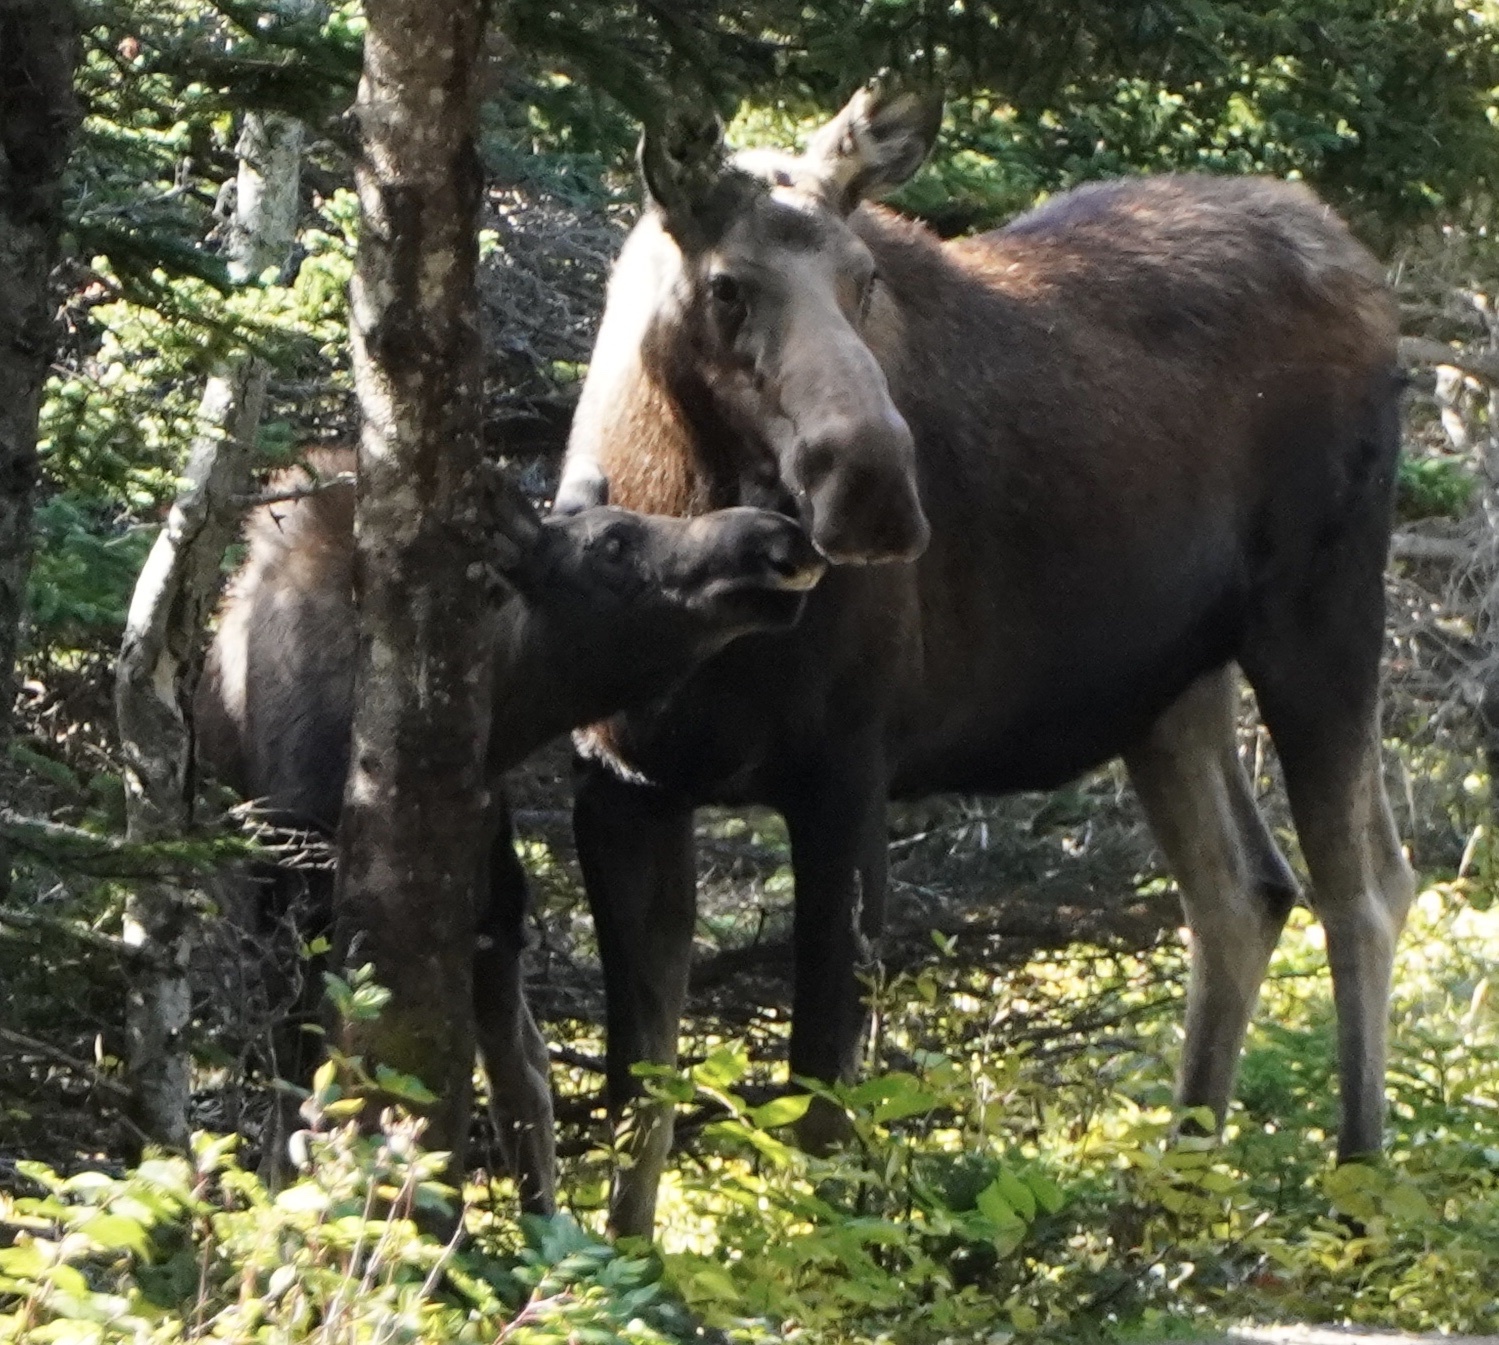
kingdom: Animalia
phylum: Chordata
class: Mammalia
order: Artiodactyla
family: Cervidae
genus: Alces
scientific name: Alces americanus
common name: Moose
